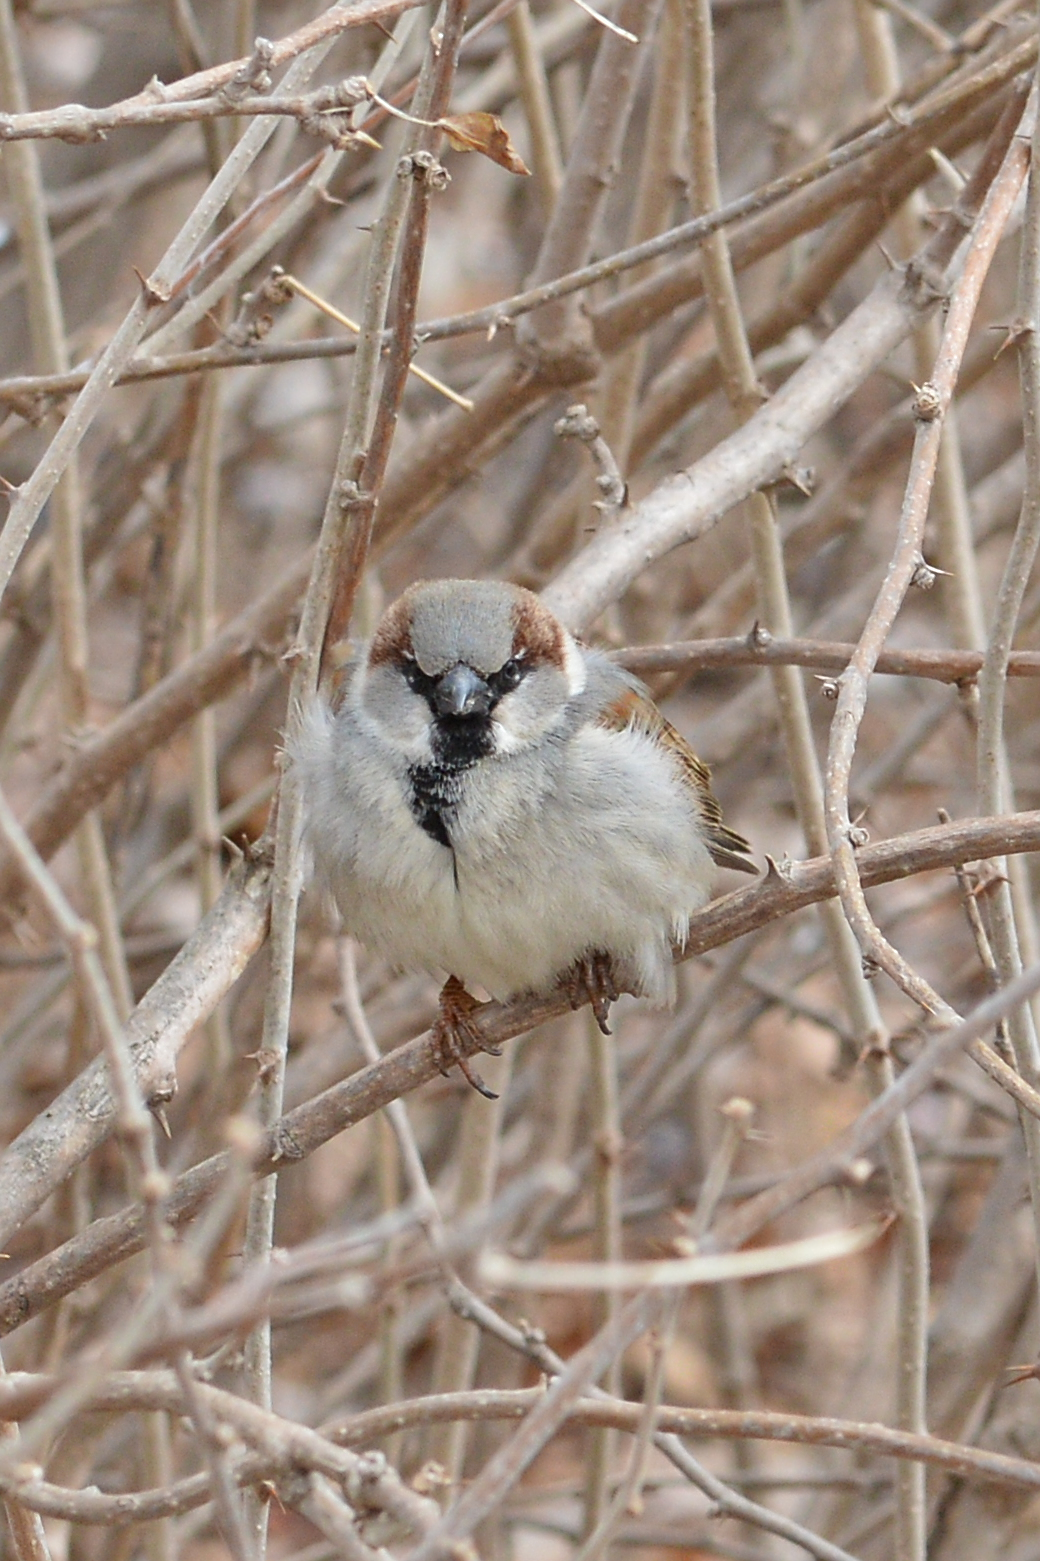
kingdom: Animalia
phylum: Chordata
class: Aves
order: Passeriformes
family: Passeridae
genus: Passer
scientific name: Passer domesticus
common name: House sparrow
